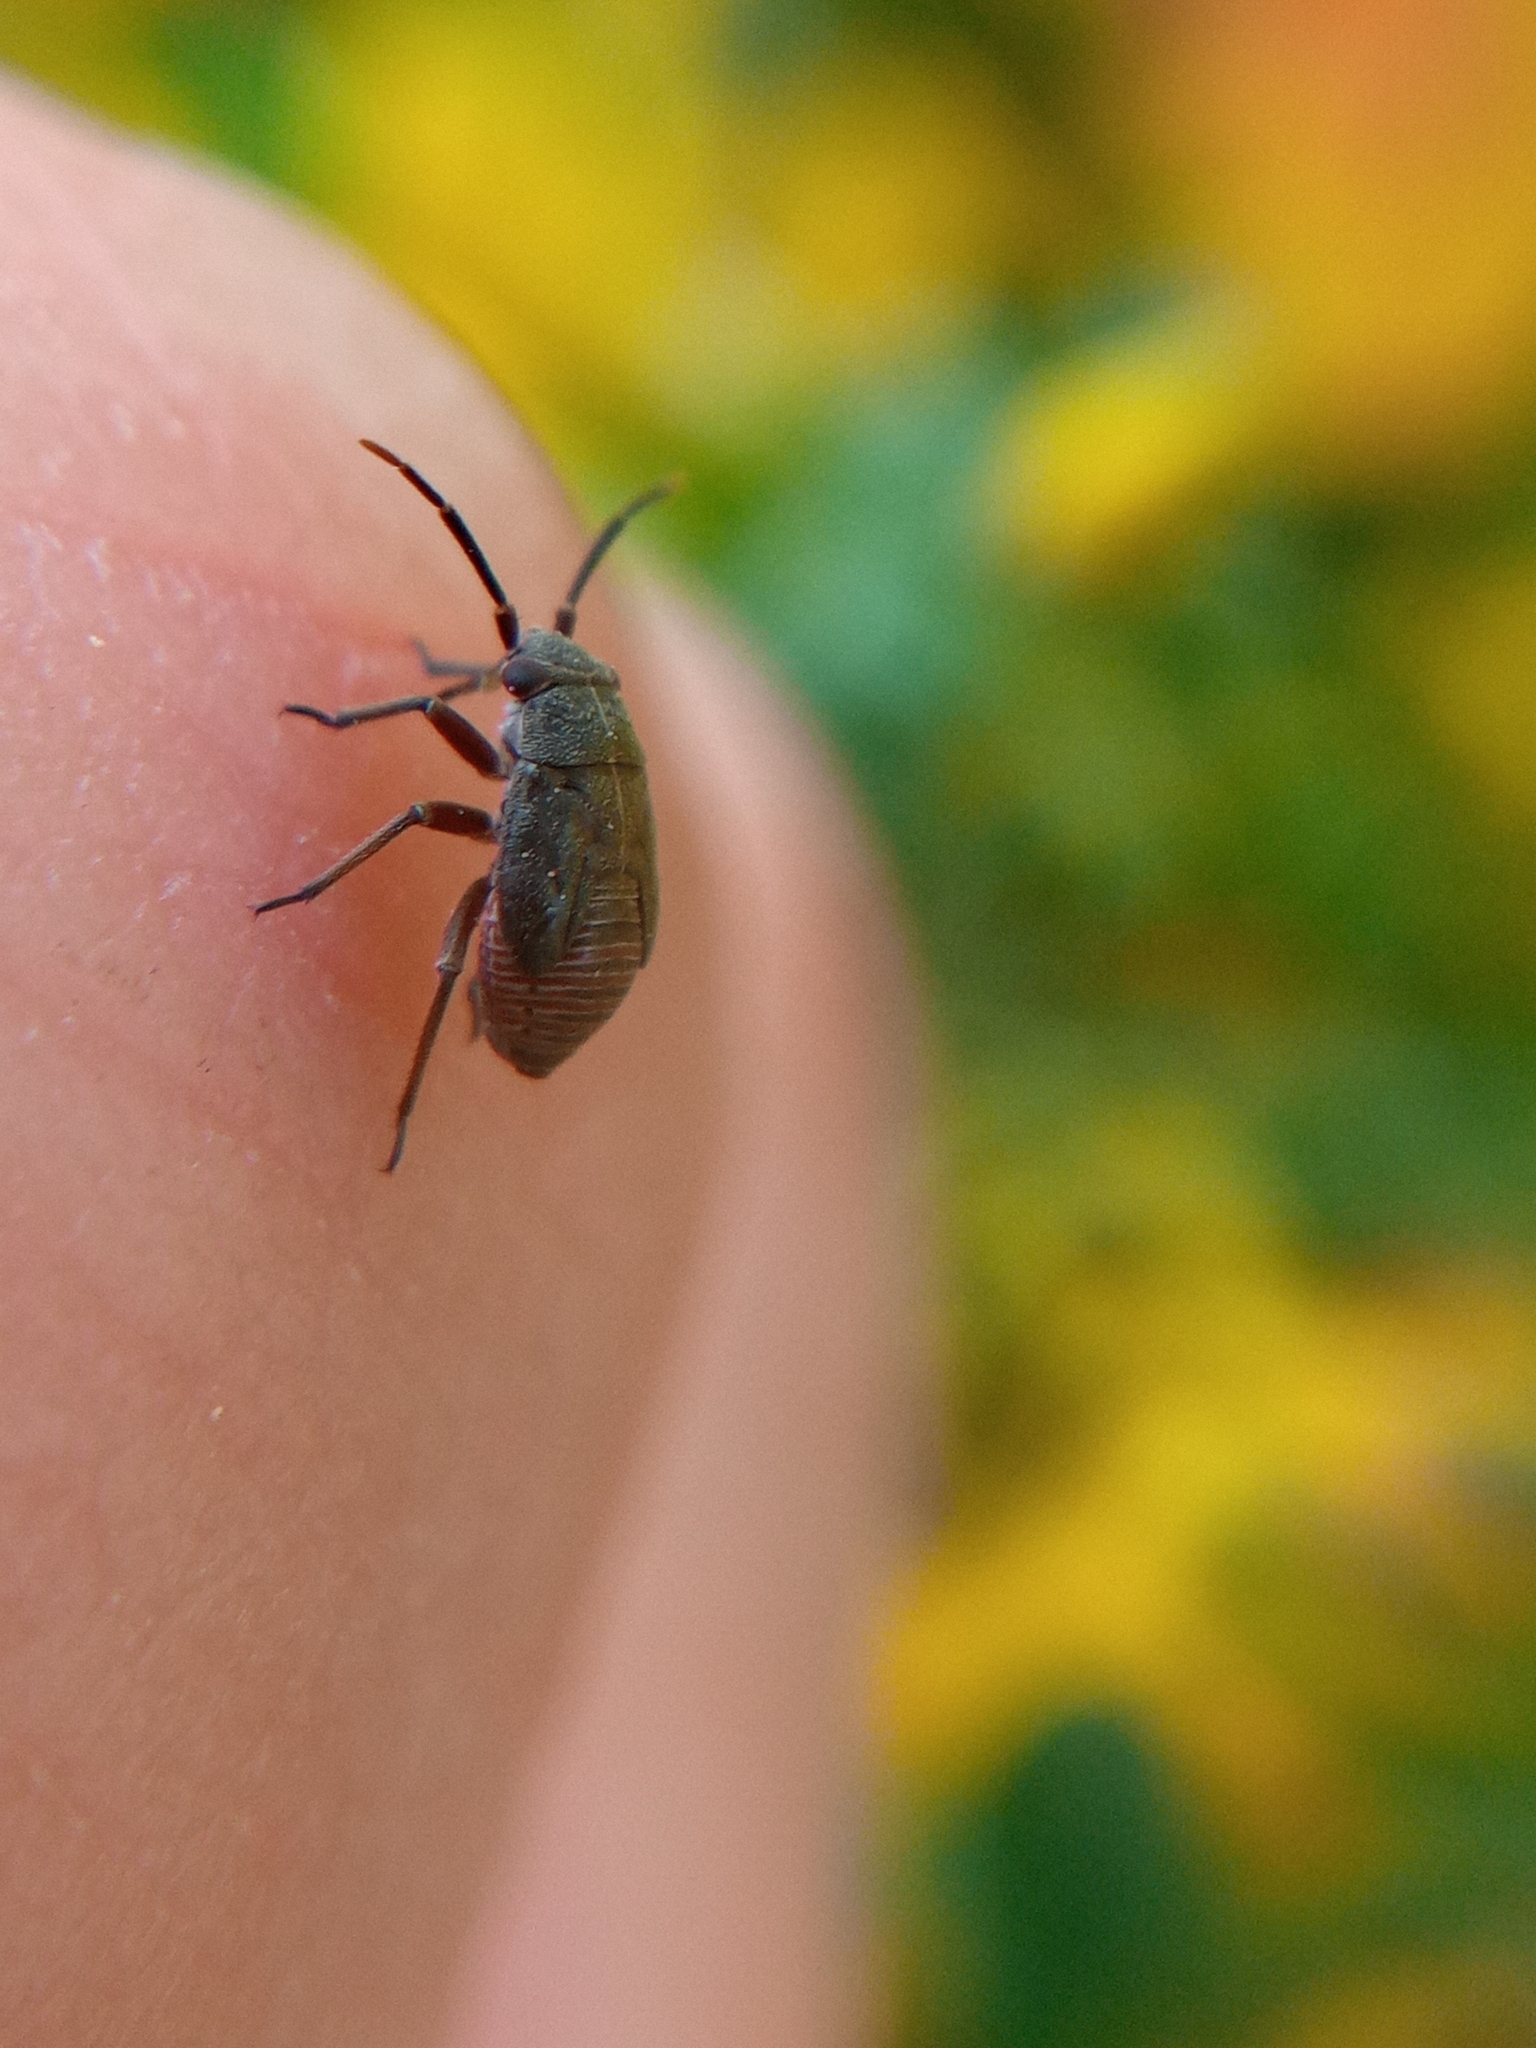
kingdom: Animalia
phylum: Arthropoda
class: Insecta
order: Hemiptera
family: Miridae
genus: Heterocordylus
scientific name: Heterocordylus tibialis
